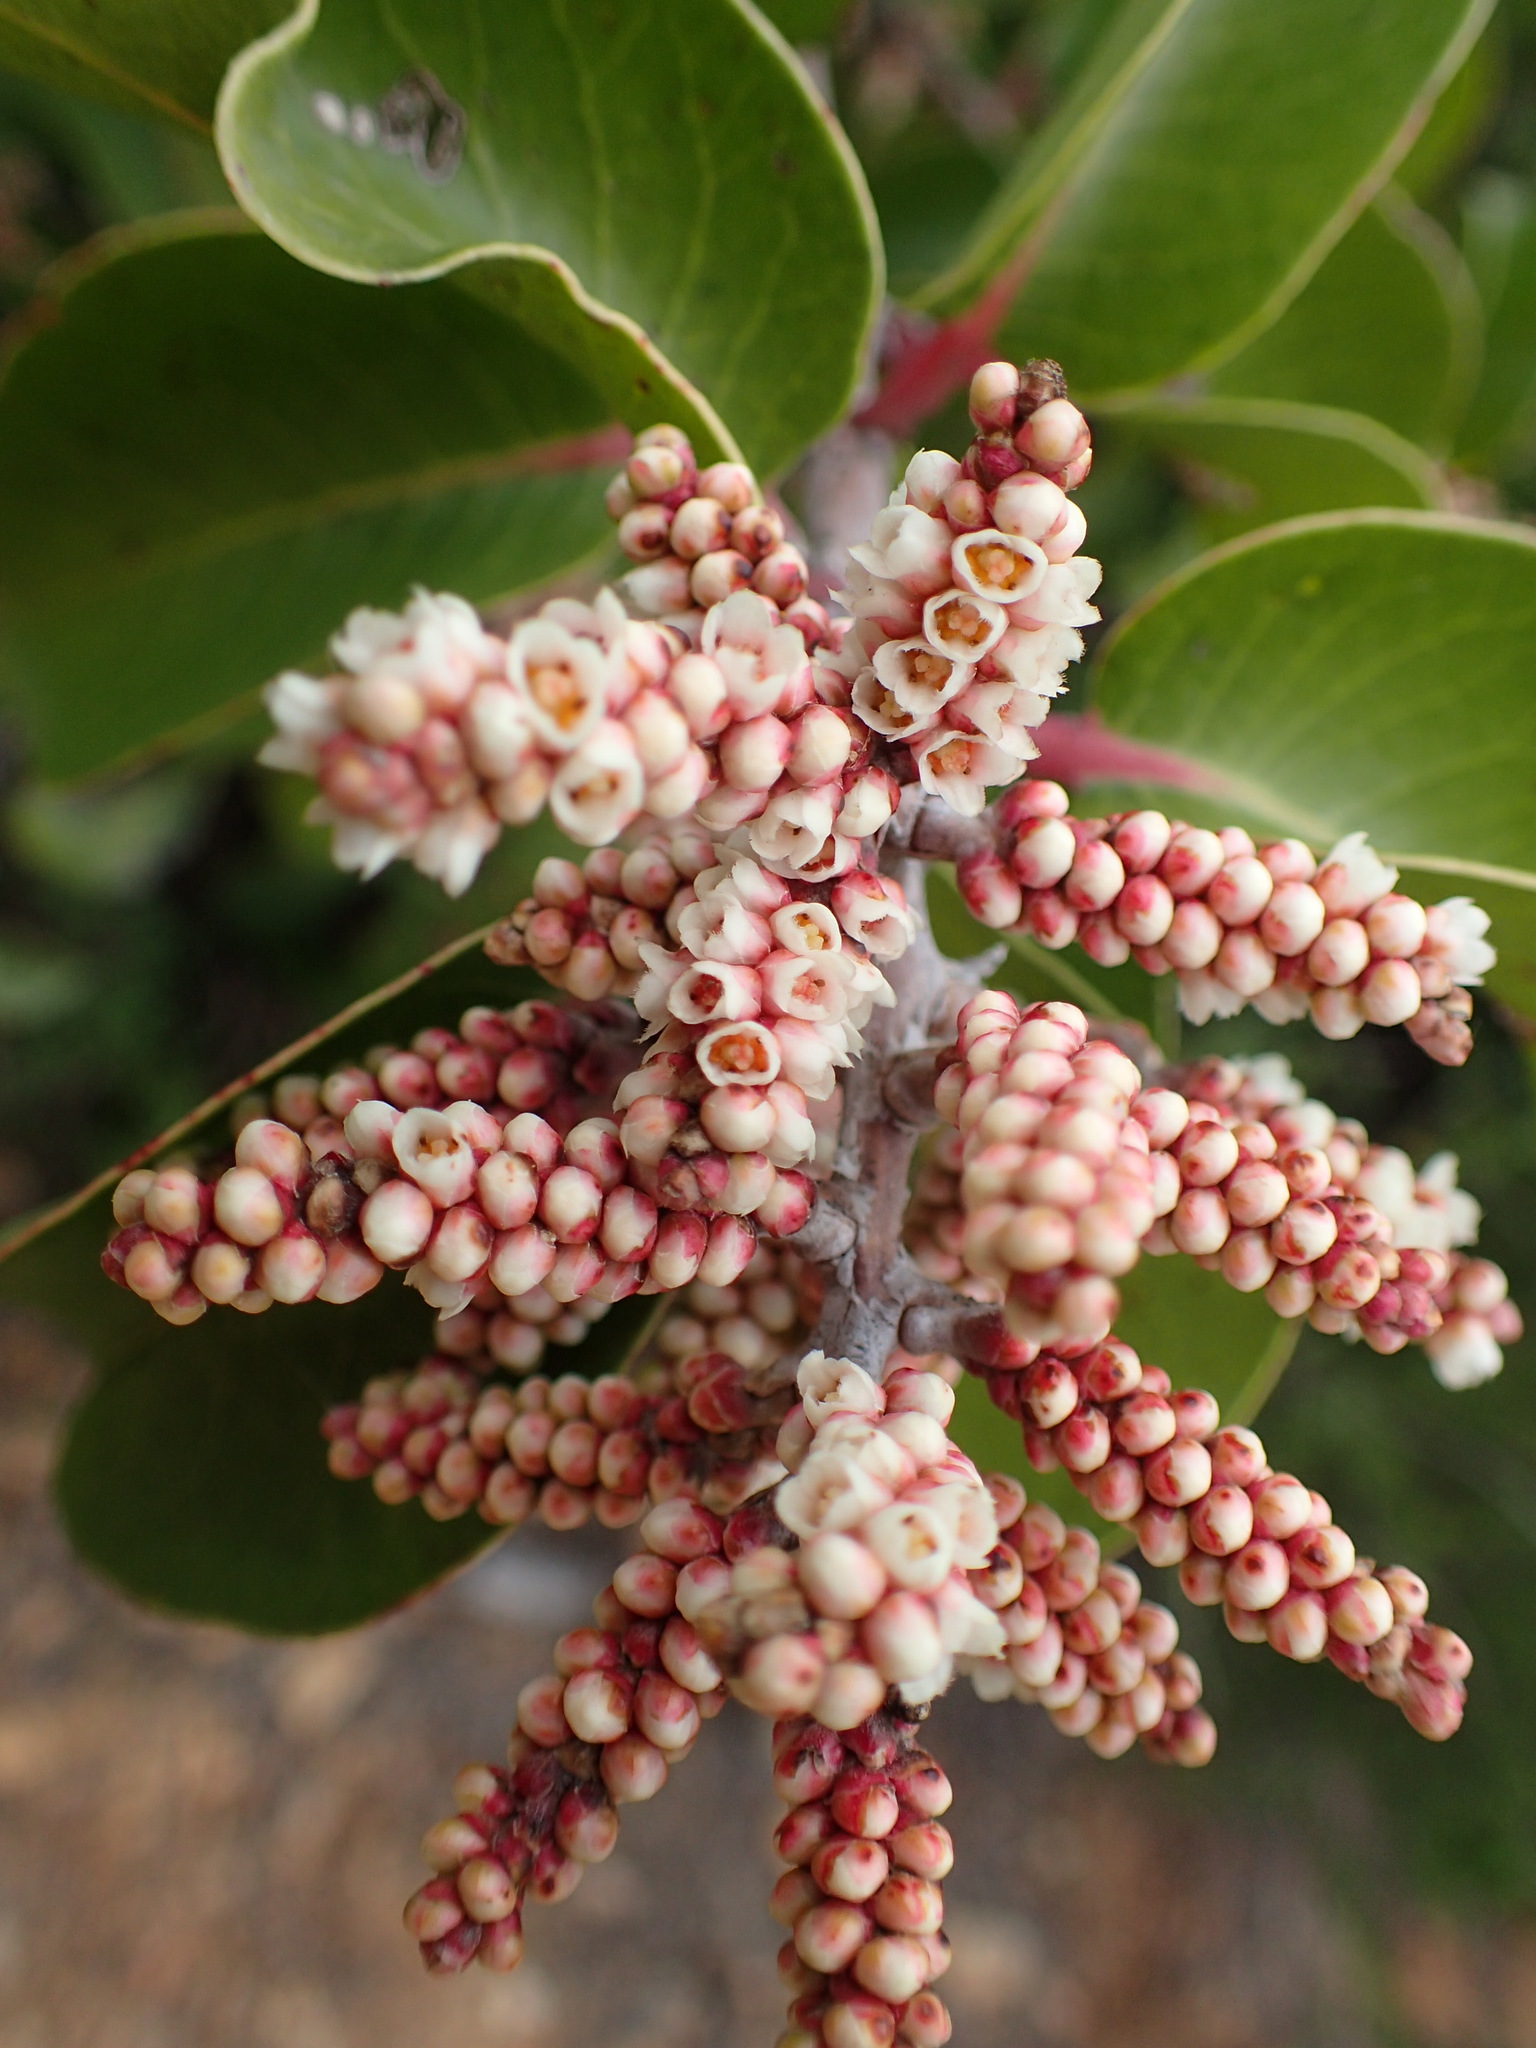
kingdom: Plantae
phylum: Tracheophyta
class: Magnoliopsida
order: Sapindales
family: Anacardiaceae
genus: Rhus
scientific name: Rhus ovata
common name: Sugar sumac
